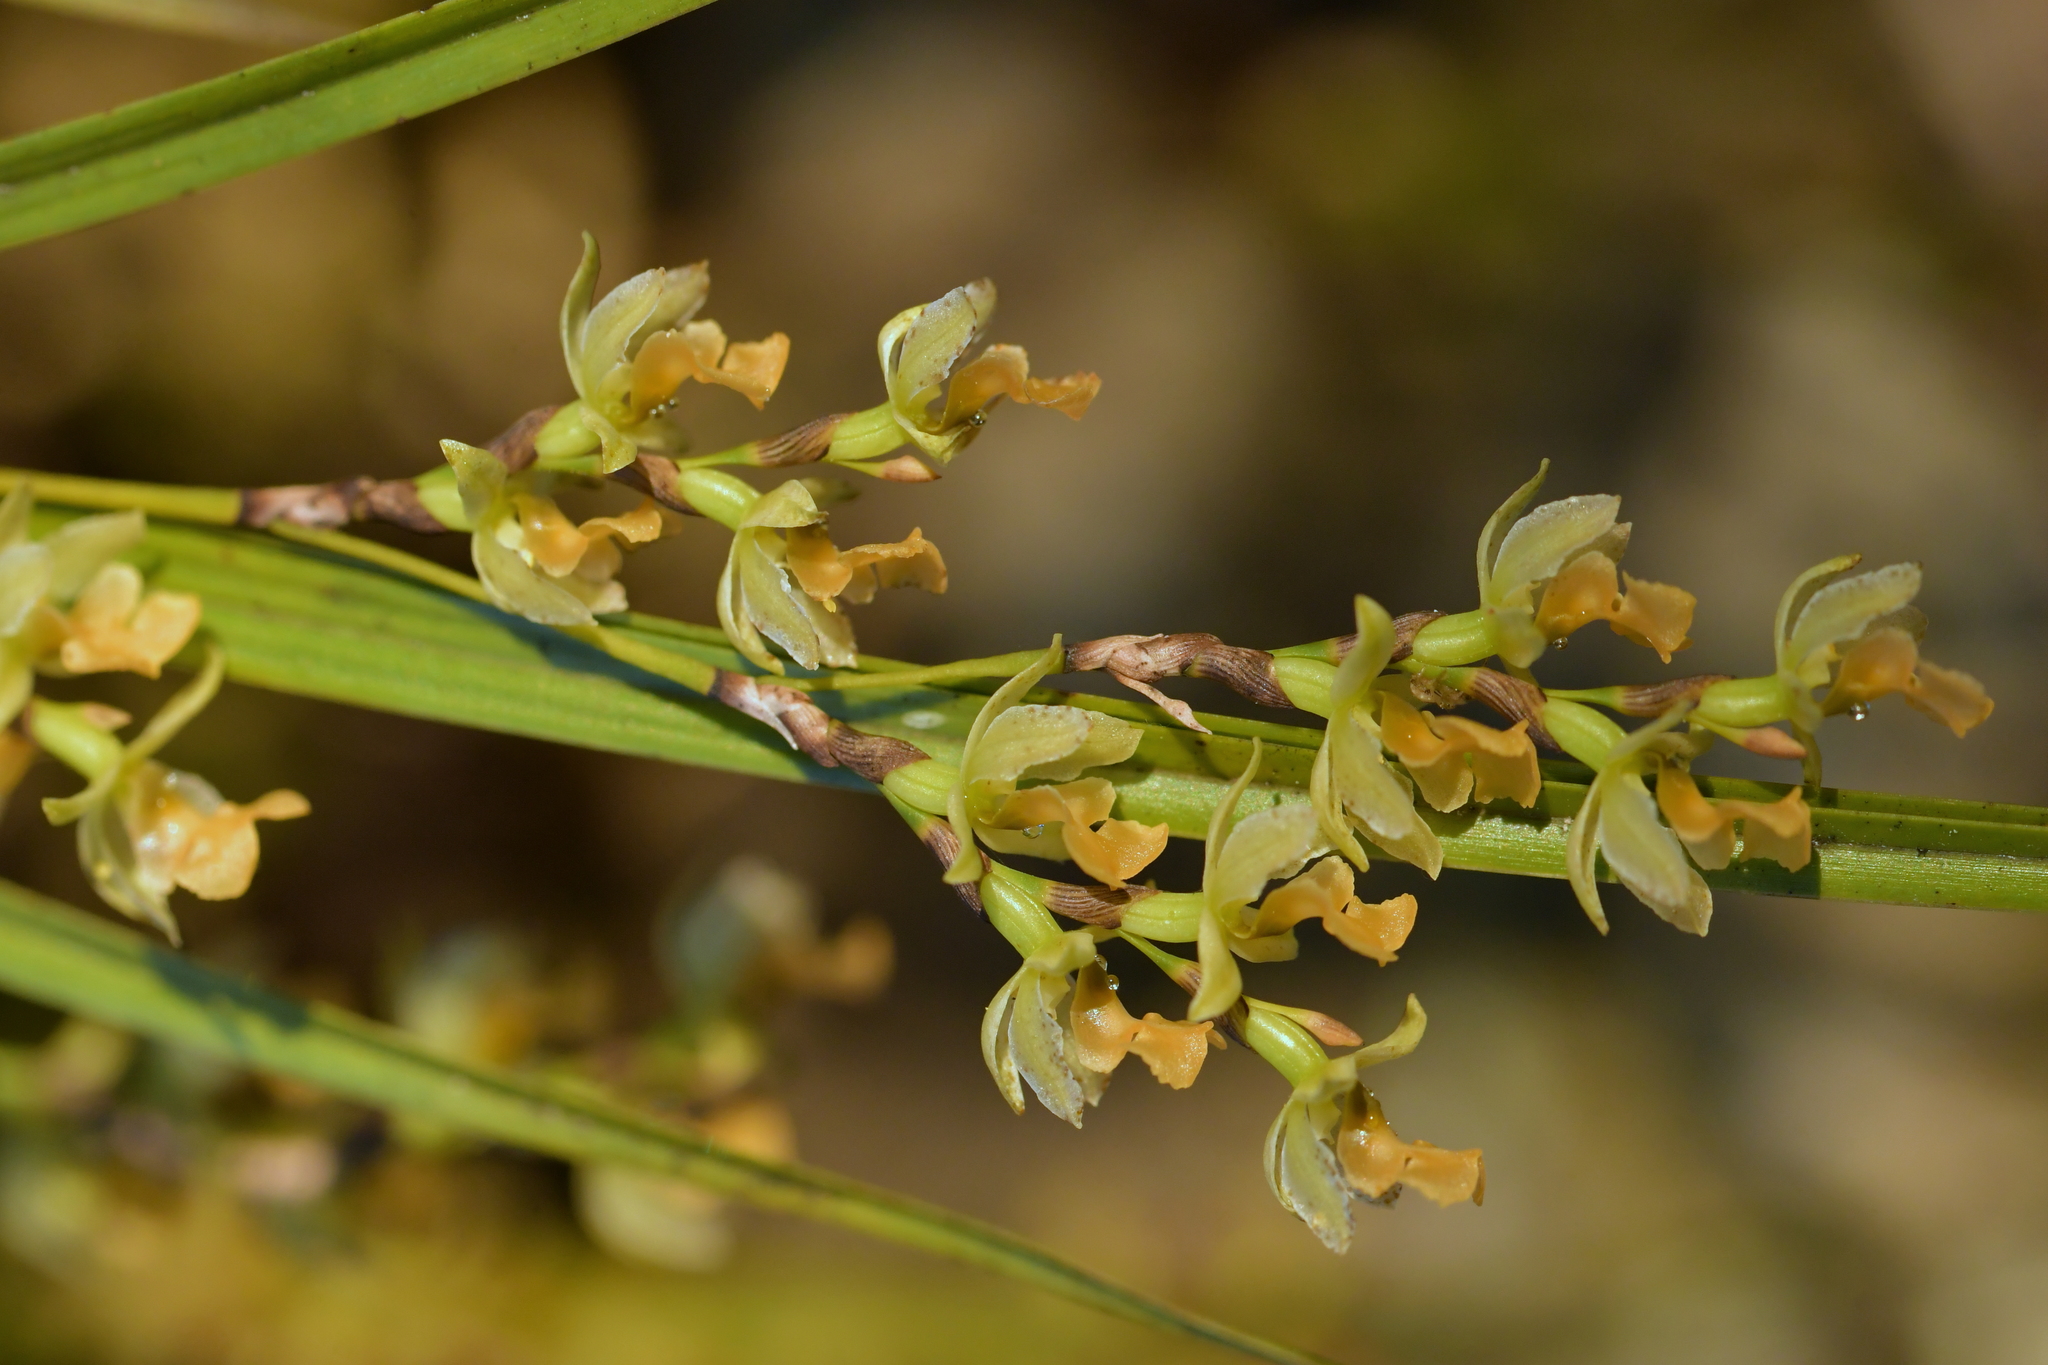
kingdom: Plantae
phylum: Tracheophyta
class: Liliopsida
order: Asparagales
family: Orchidaceae
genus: Earina
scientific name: Earina mucronata
